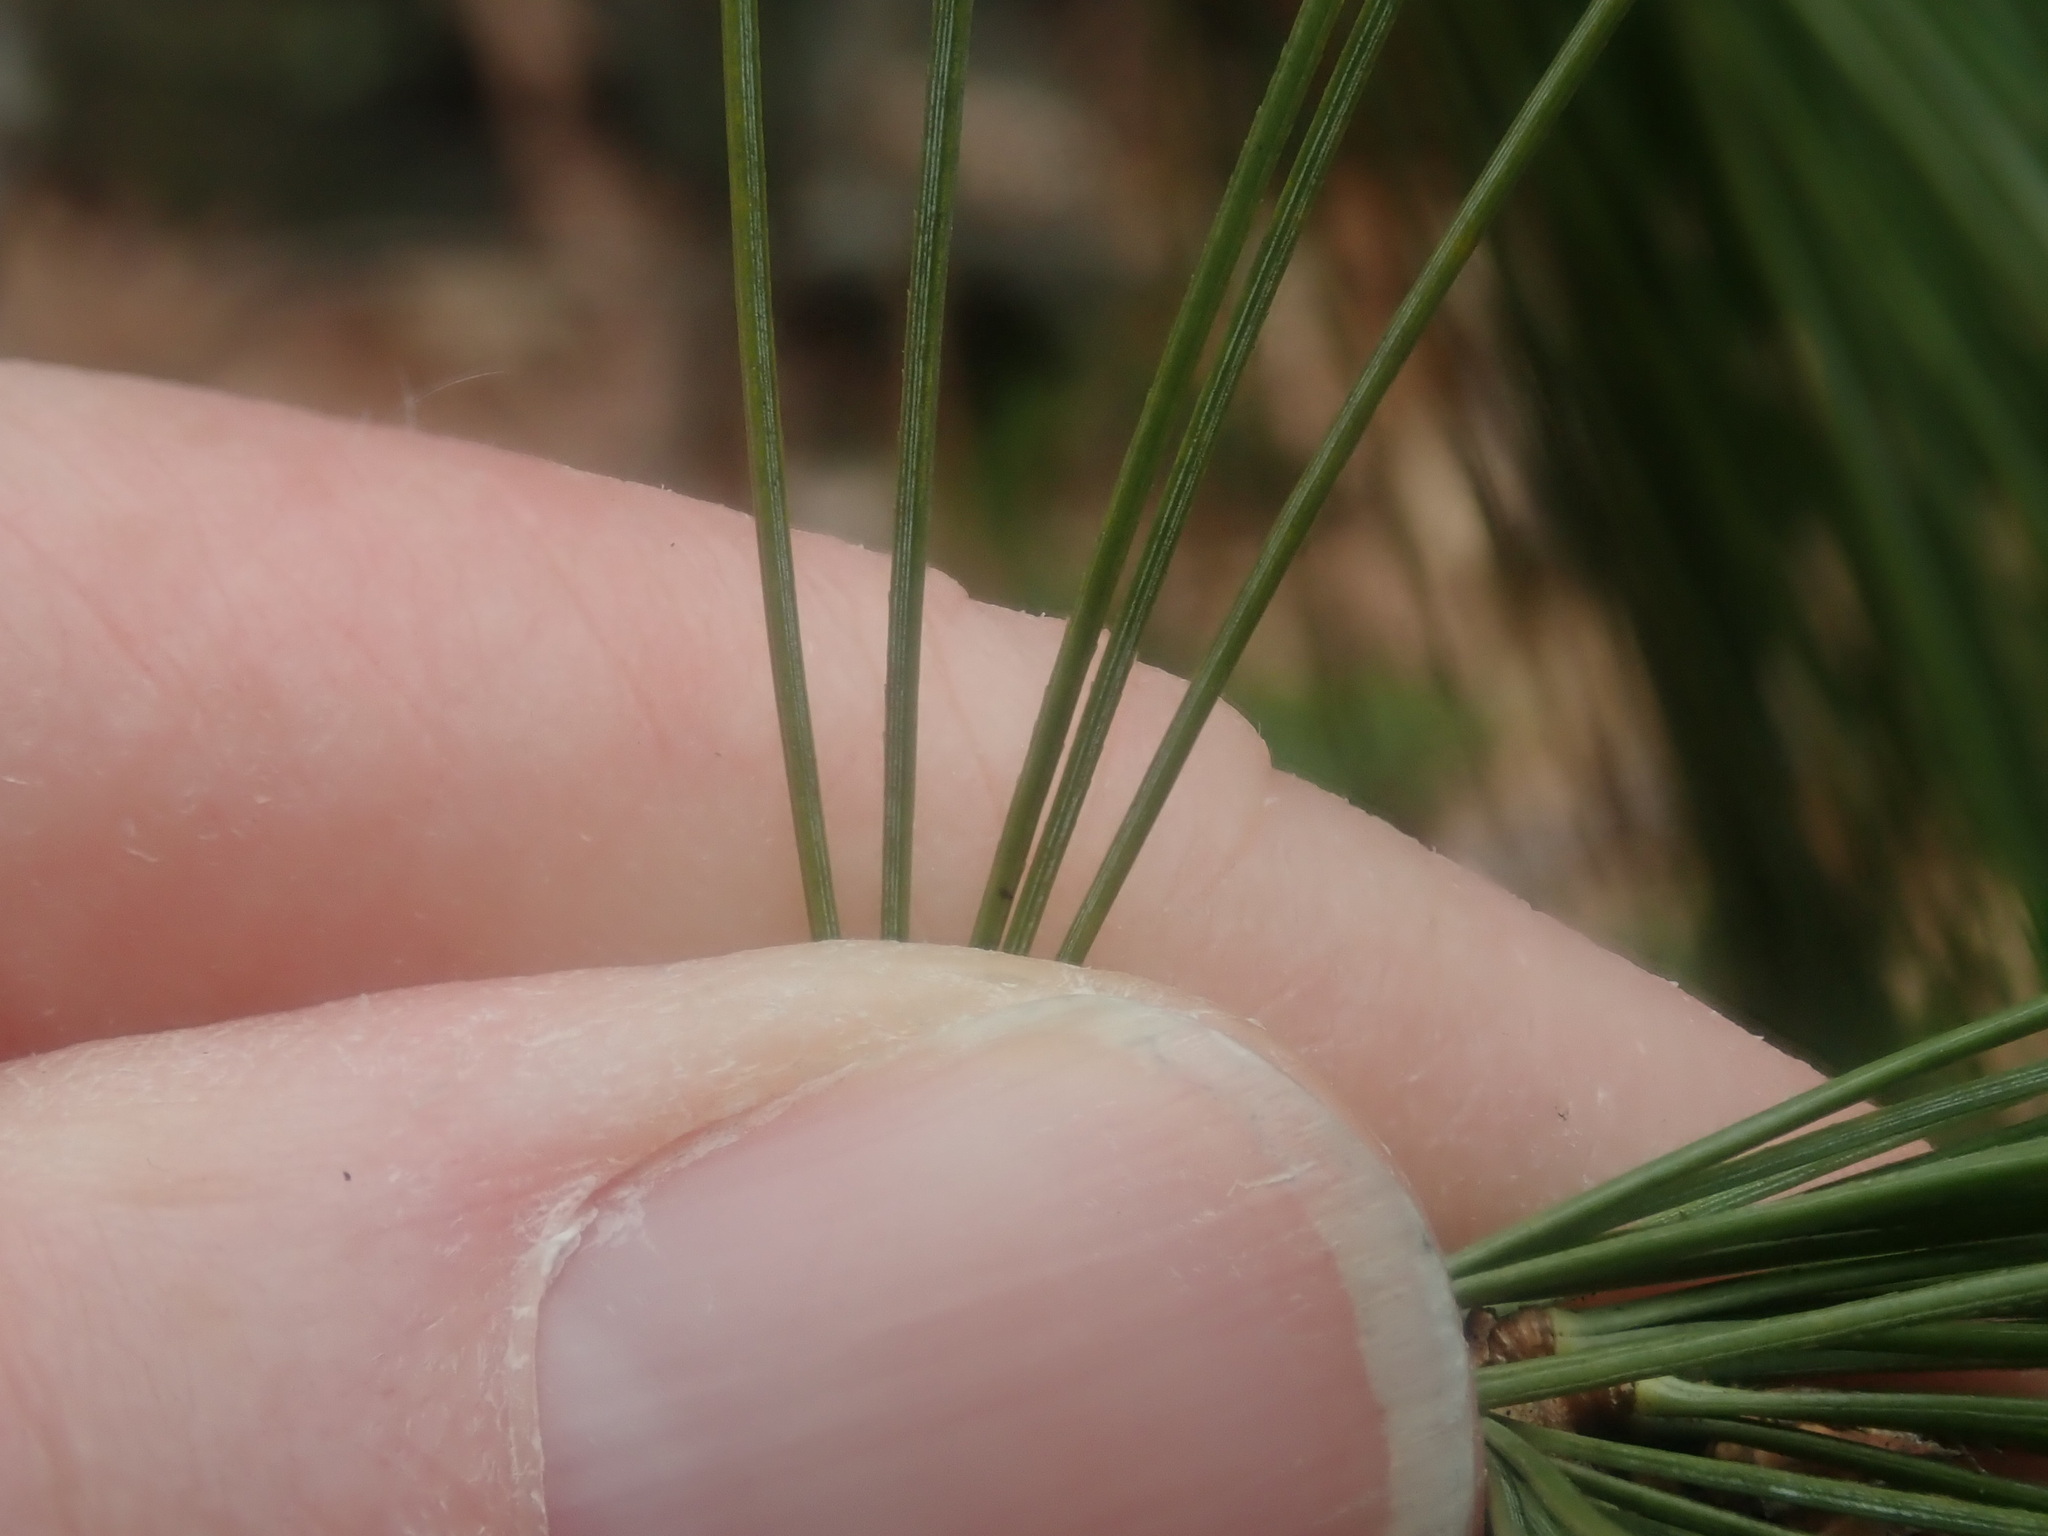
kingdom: Plantae
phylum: Tracheophyta
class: Pinopsida
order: Pinales
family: Pinaceae
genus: Pinus
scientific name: Pinus strobus
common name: Weymouth pine
